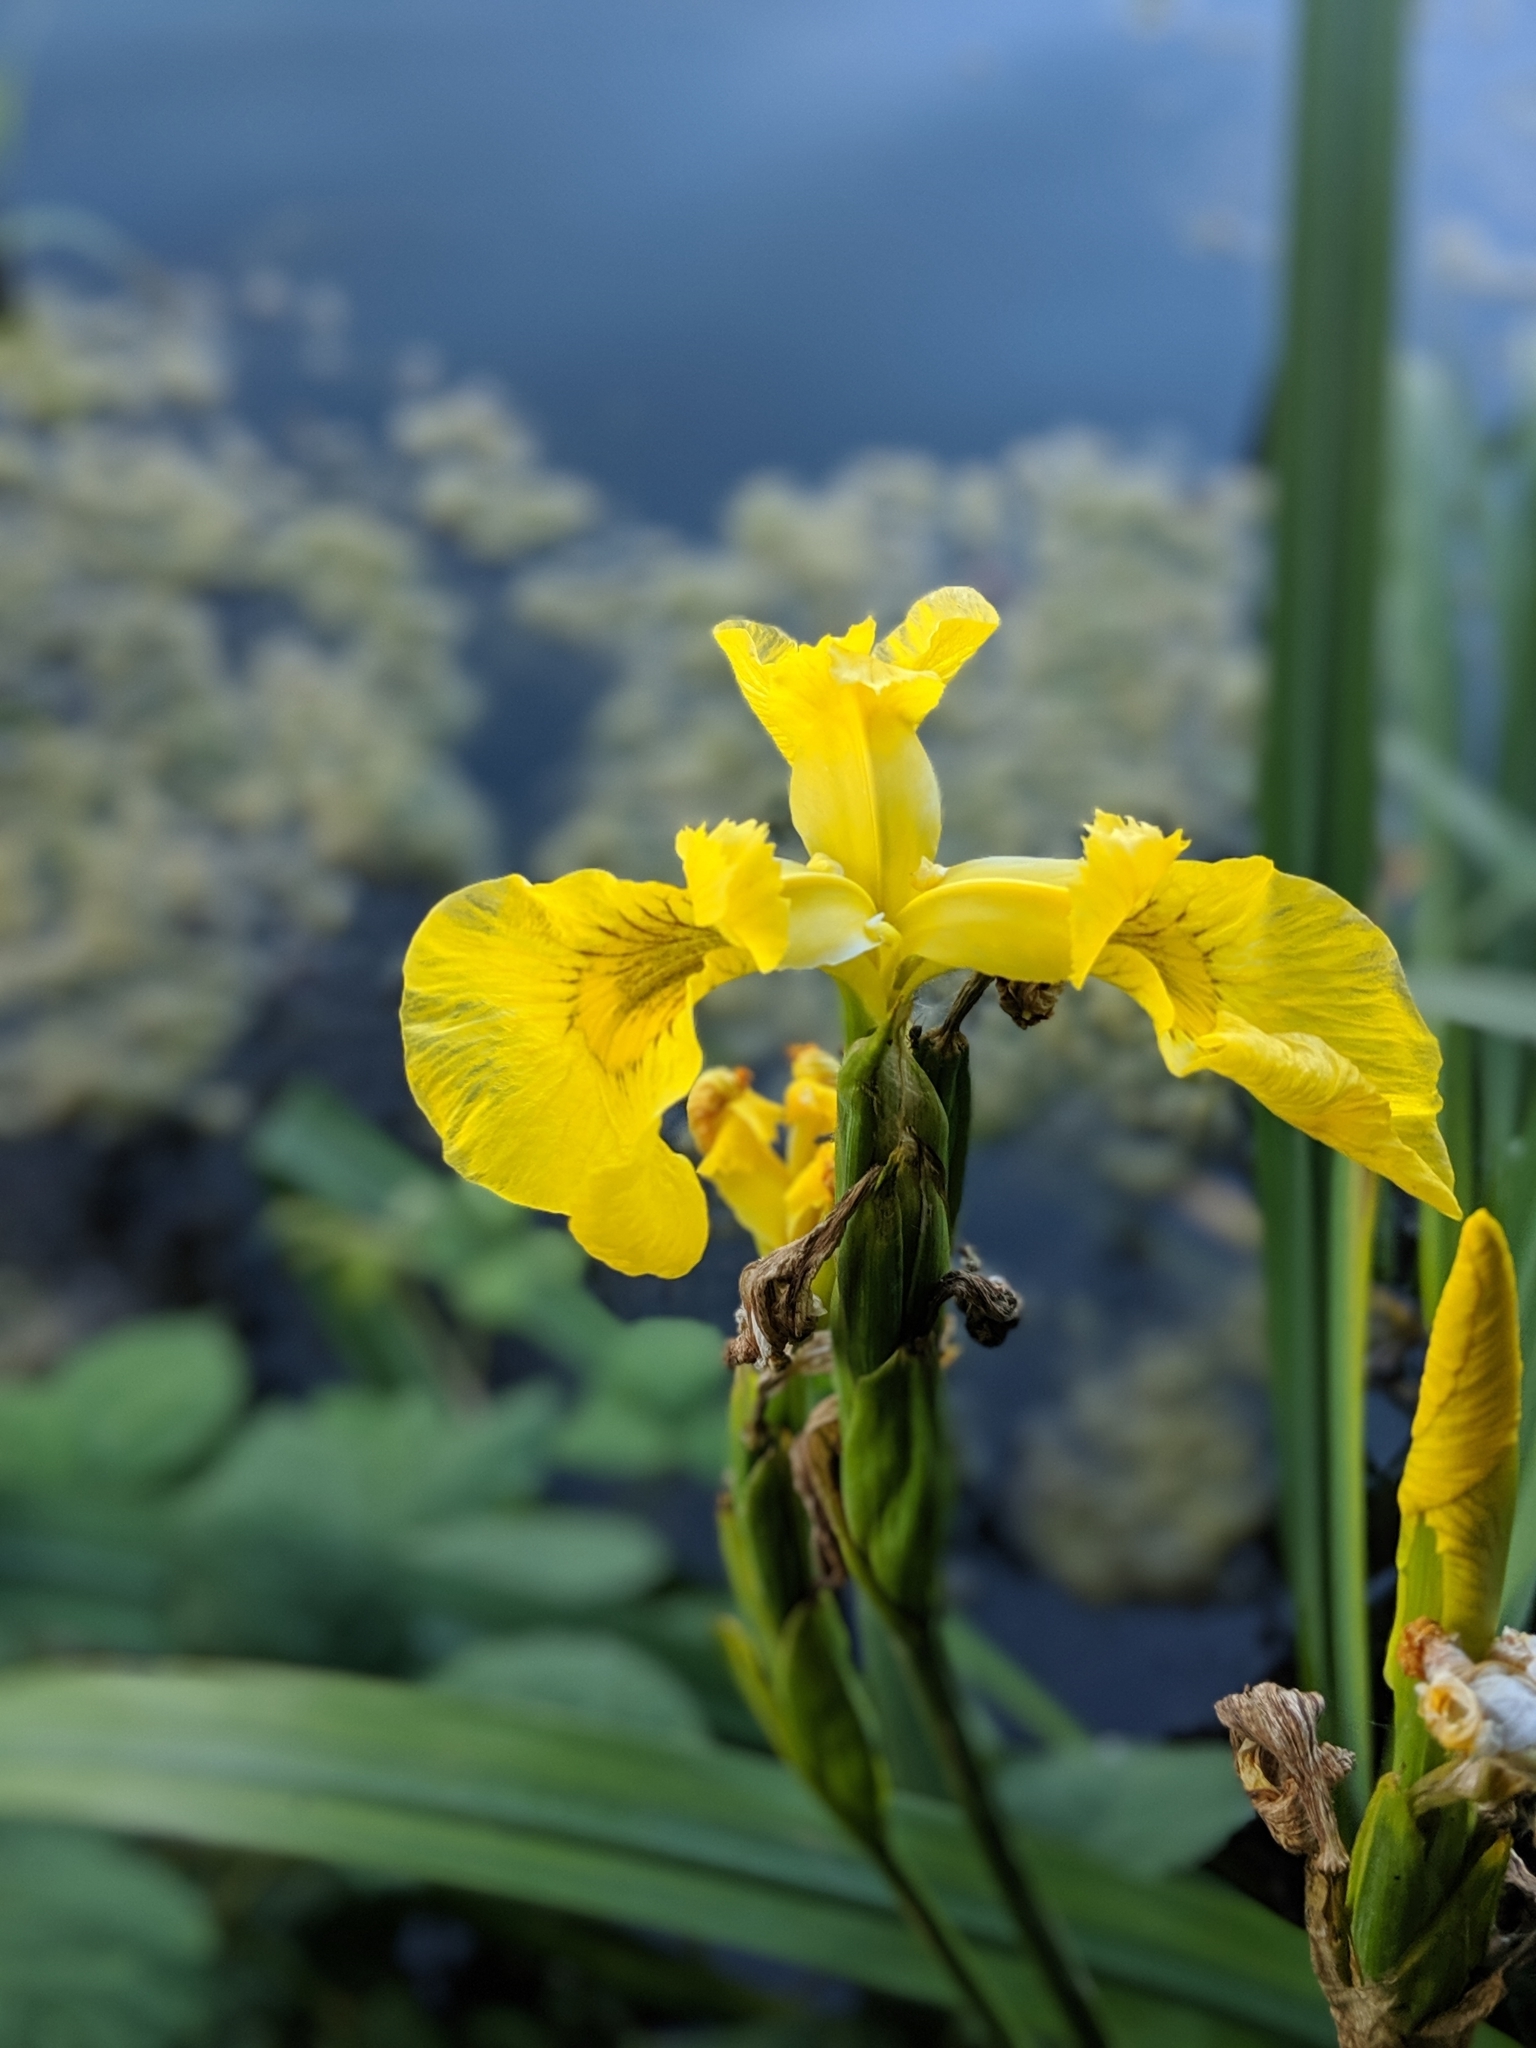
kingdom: Plantae
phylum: Tracheophyta
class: Liliopsida
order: Asparagales
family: Iridaceae
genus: Iris
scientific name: Iris pseudacorus
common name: Yellow flag
